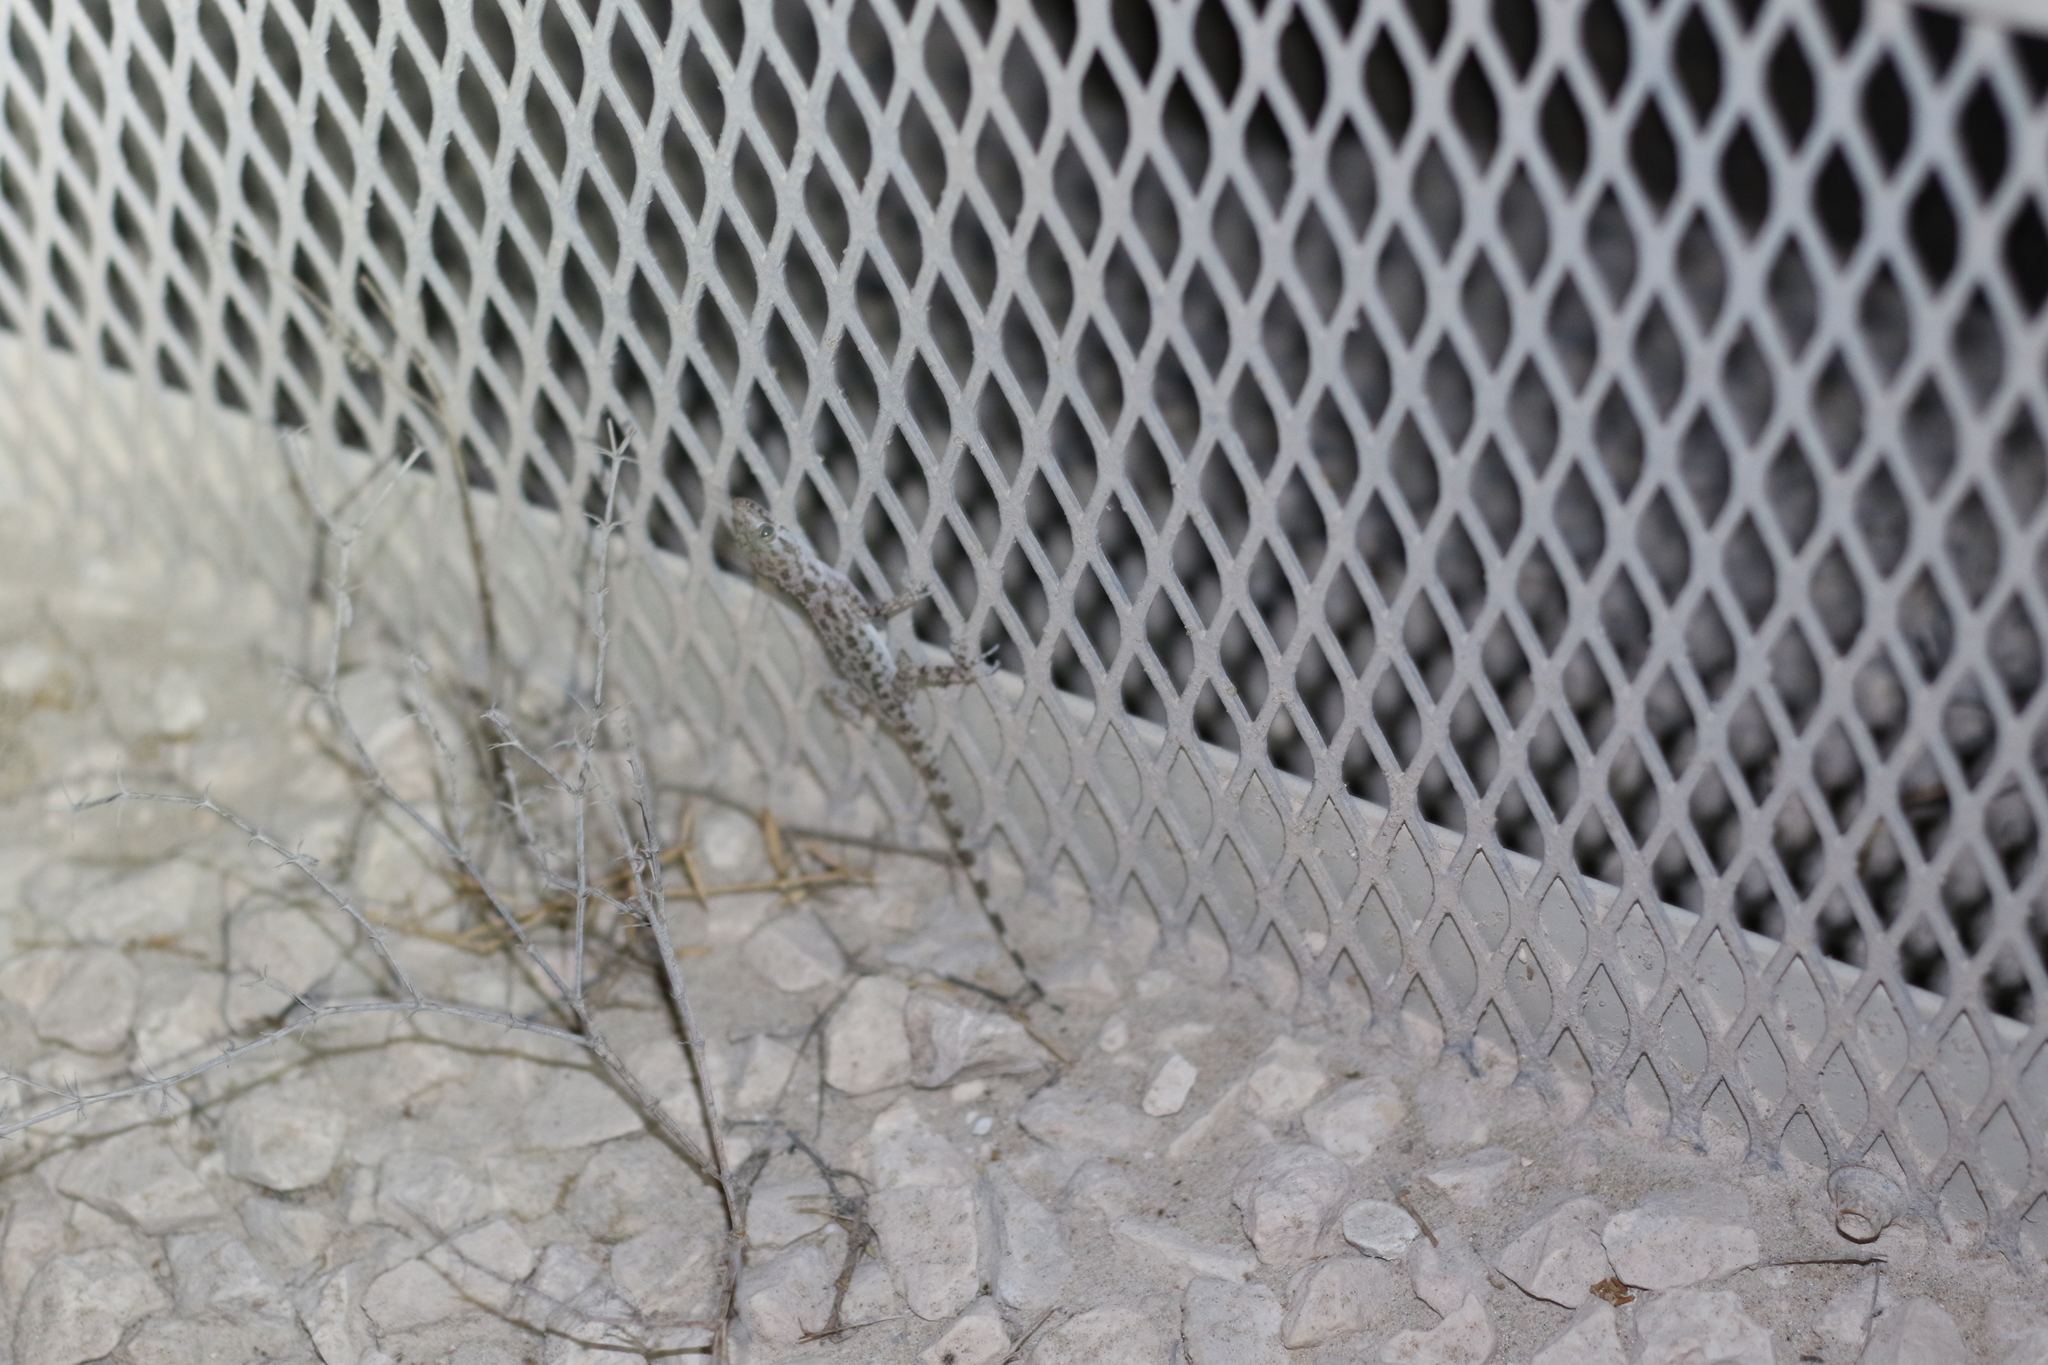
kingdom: Animalia
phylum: Chordata
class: Squamata
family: Gekkonidae
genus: Cyrtopodion
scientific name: Cyrtopodion scabrum
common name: Rough-tailed gecko
